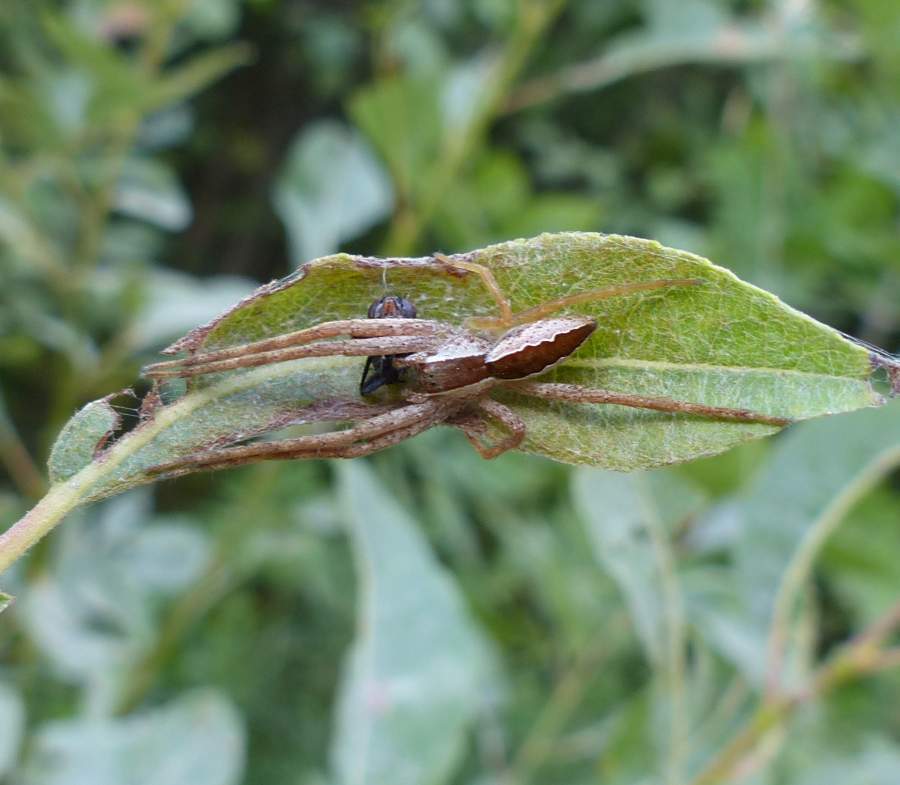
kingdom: Animalia
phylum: Arthropoda
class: Arachnida
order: Araneae
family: Pisauridae
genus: Pisaurina
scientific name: Pisaurina mira
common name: American nursery web spider
